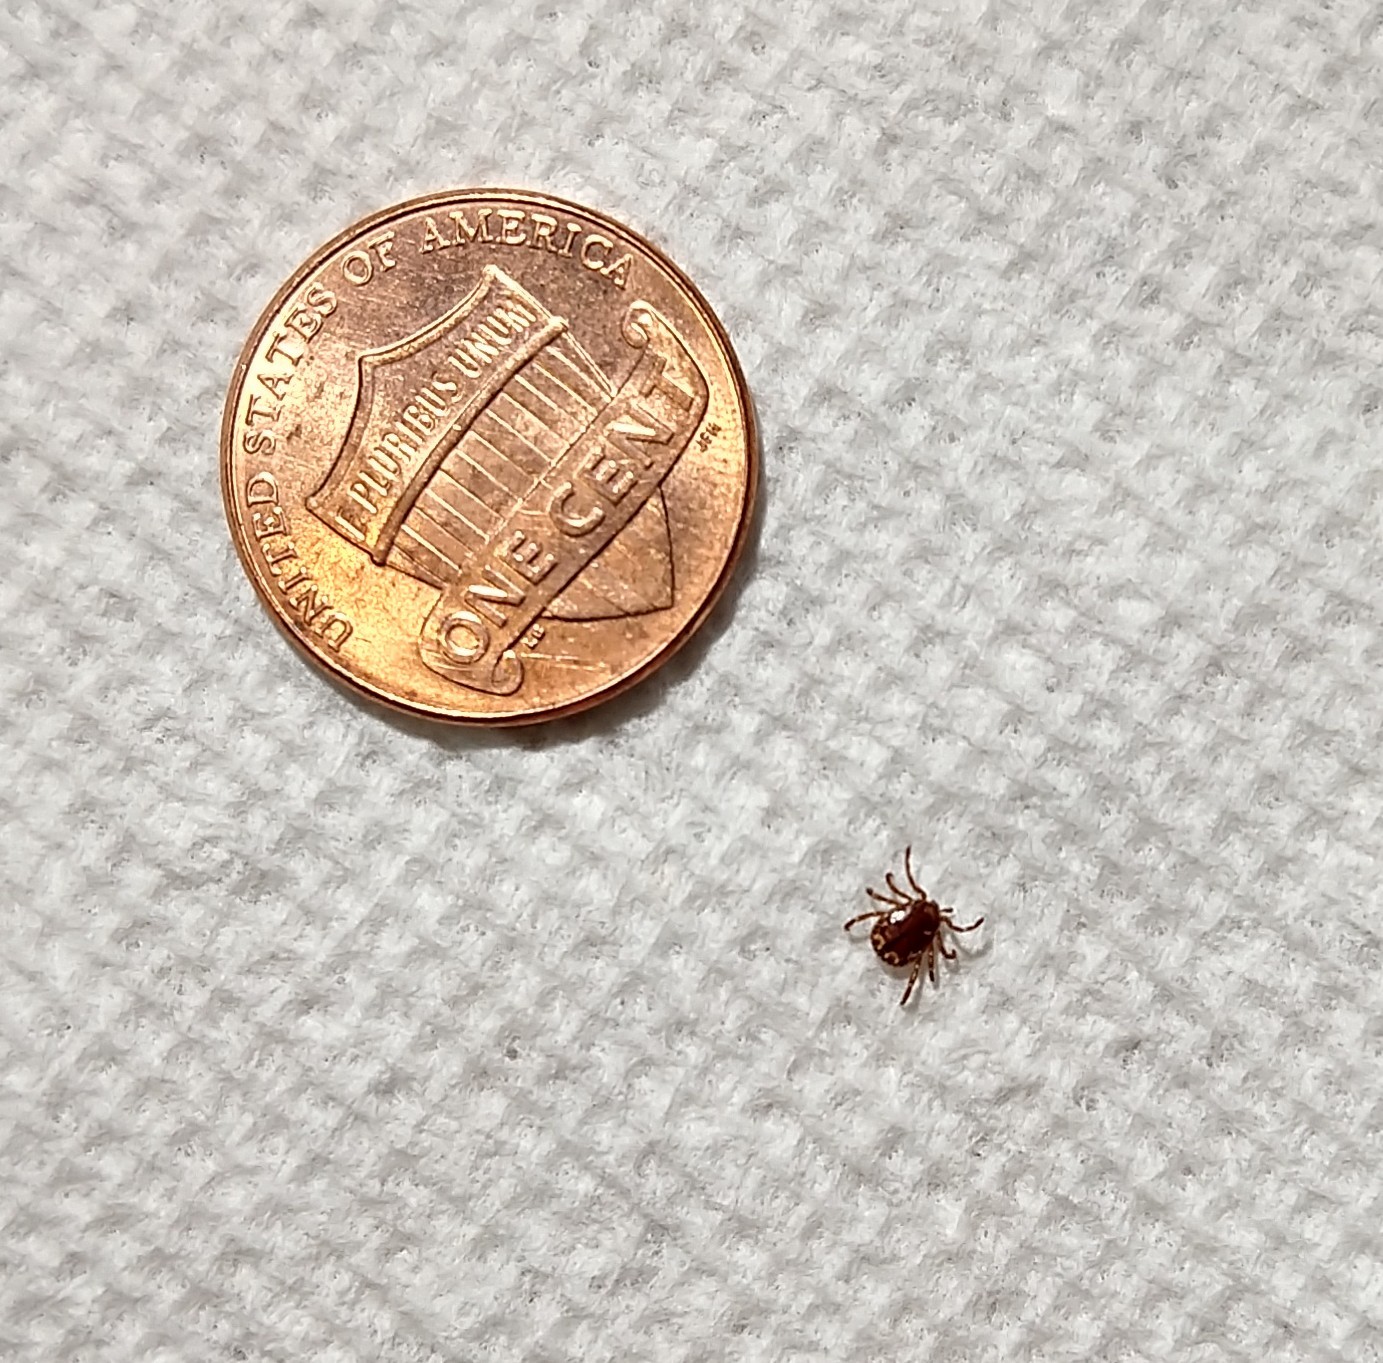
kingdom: Animalia
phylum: Arthropoda
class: Arachnida
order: Ixodida
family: Ixodidae
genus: Amblyomma
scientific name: Amblyomma americanum
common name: Lone star tick
